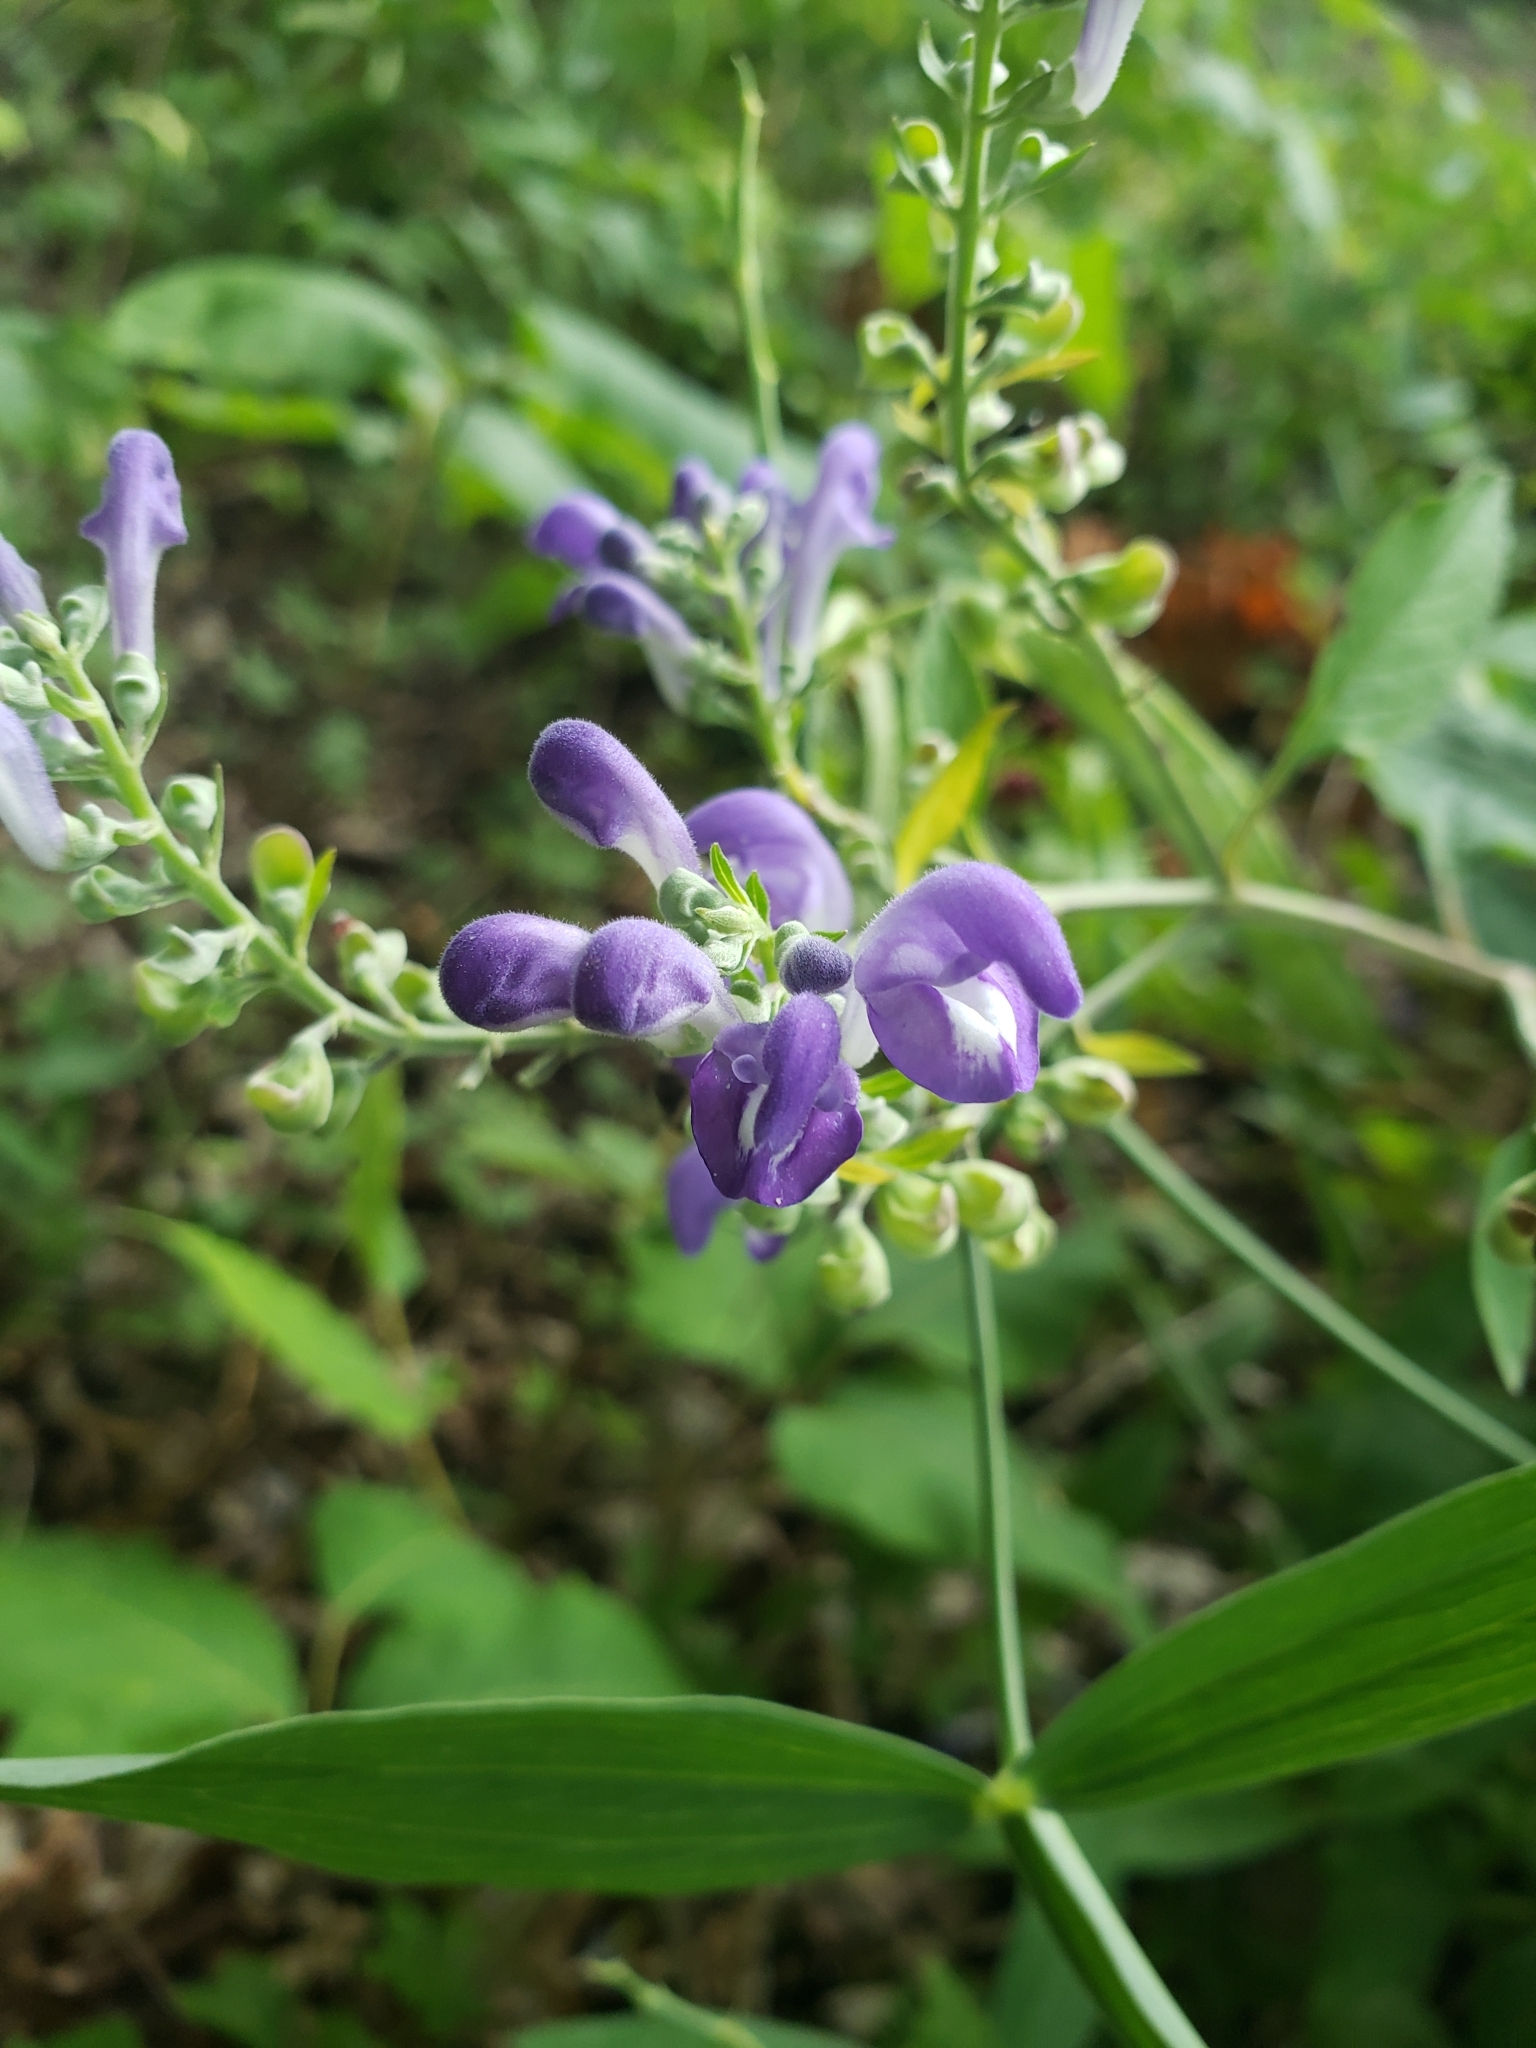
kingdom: Plantae
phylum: Tracheophyta
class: Magnoliopsida
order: Lamiales
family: Lamiaceae
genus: Scutellaria
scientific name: Scutellaria incana
